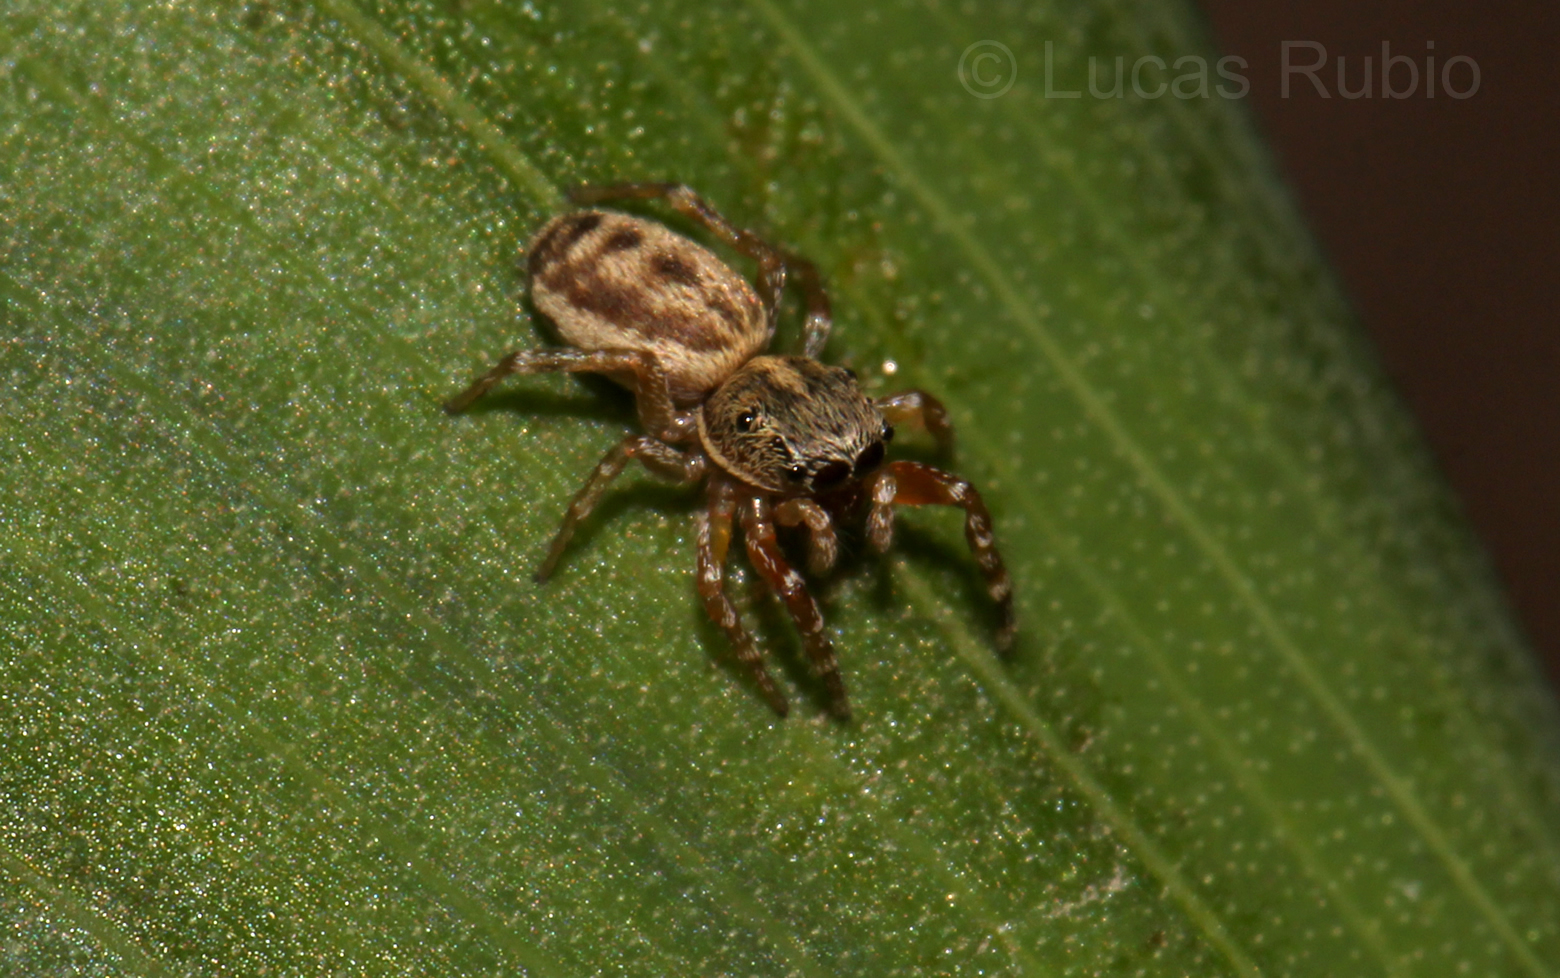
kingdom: Animalia
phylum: Arthropoda
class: Arachnida
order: Araneae
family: Salticidae
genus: Tartamura
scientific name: Tartamura adfectuosa
